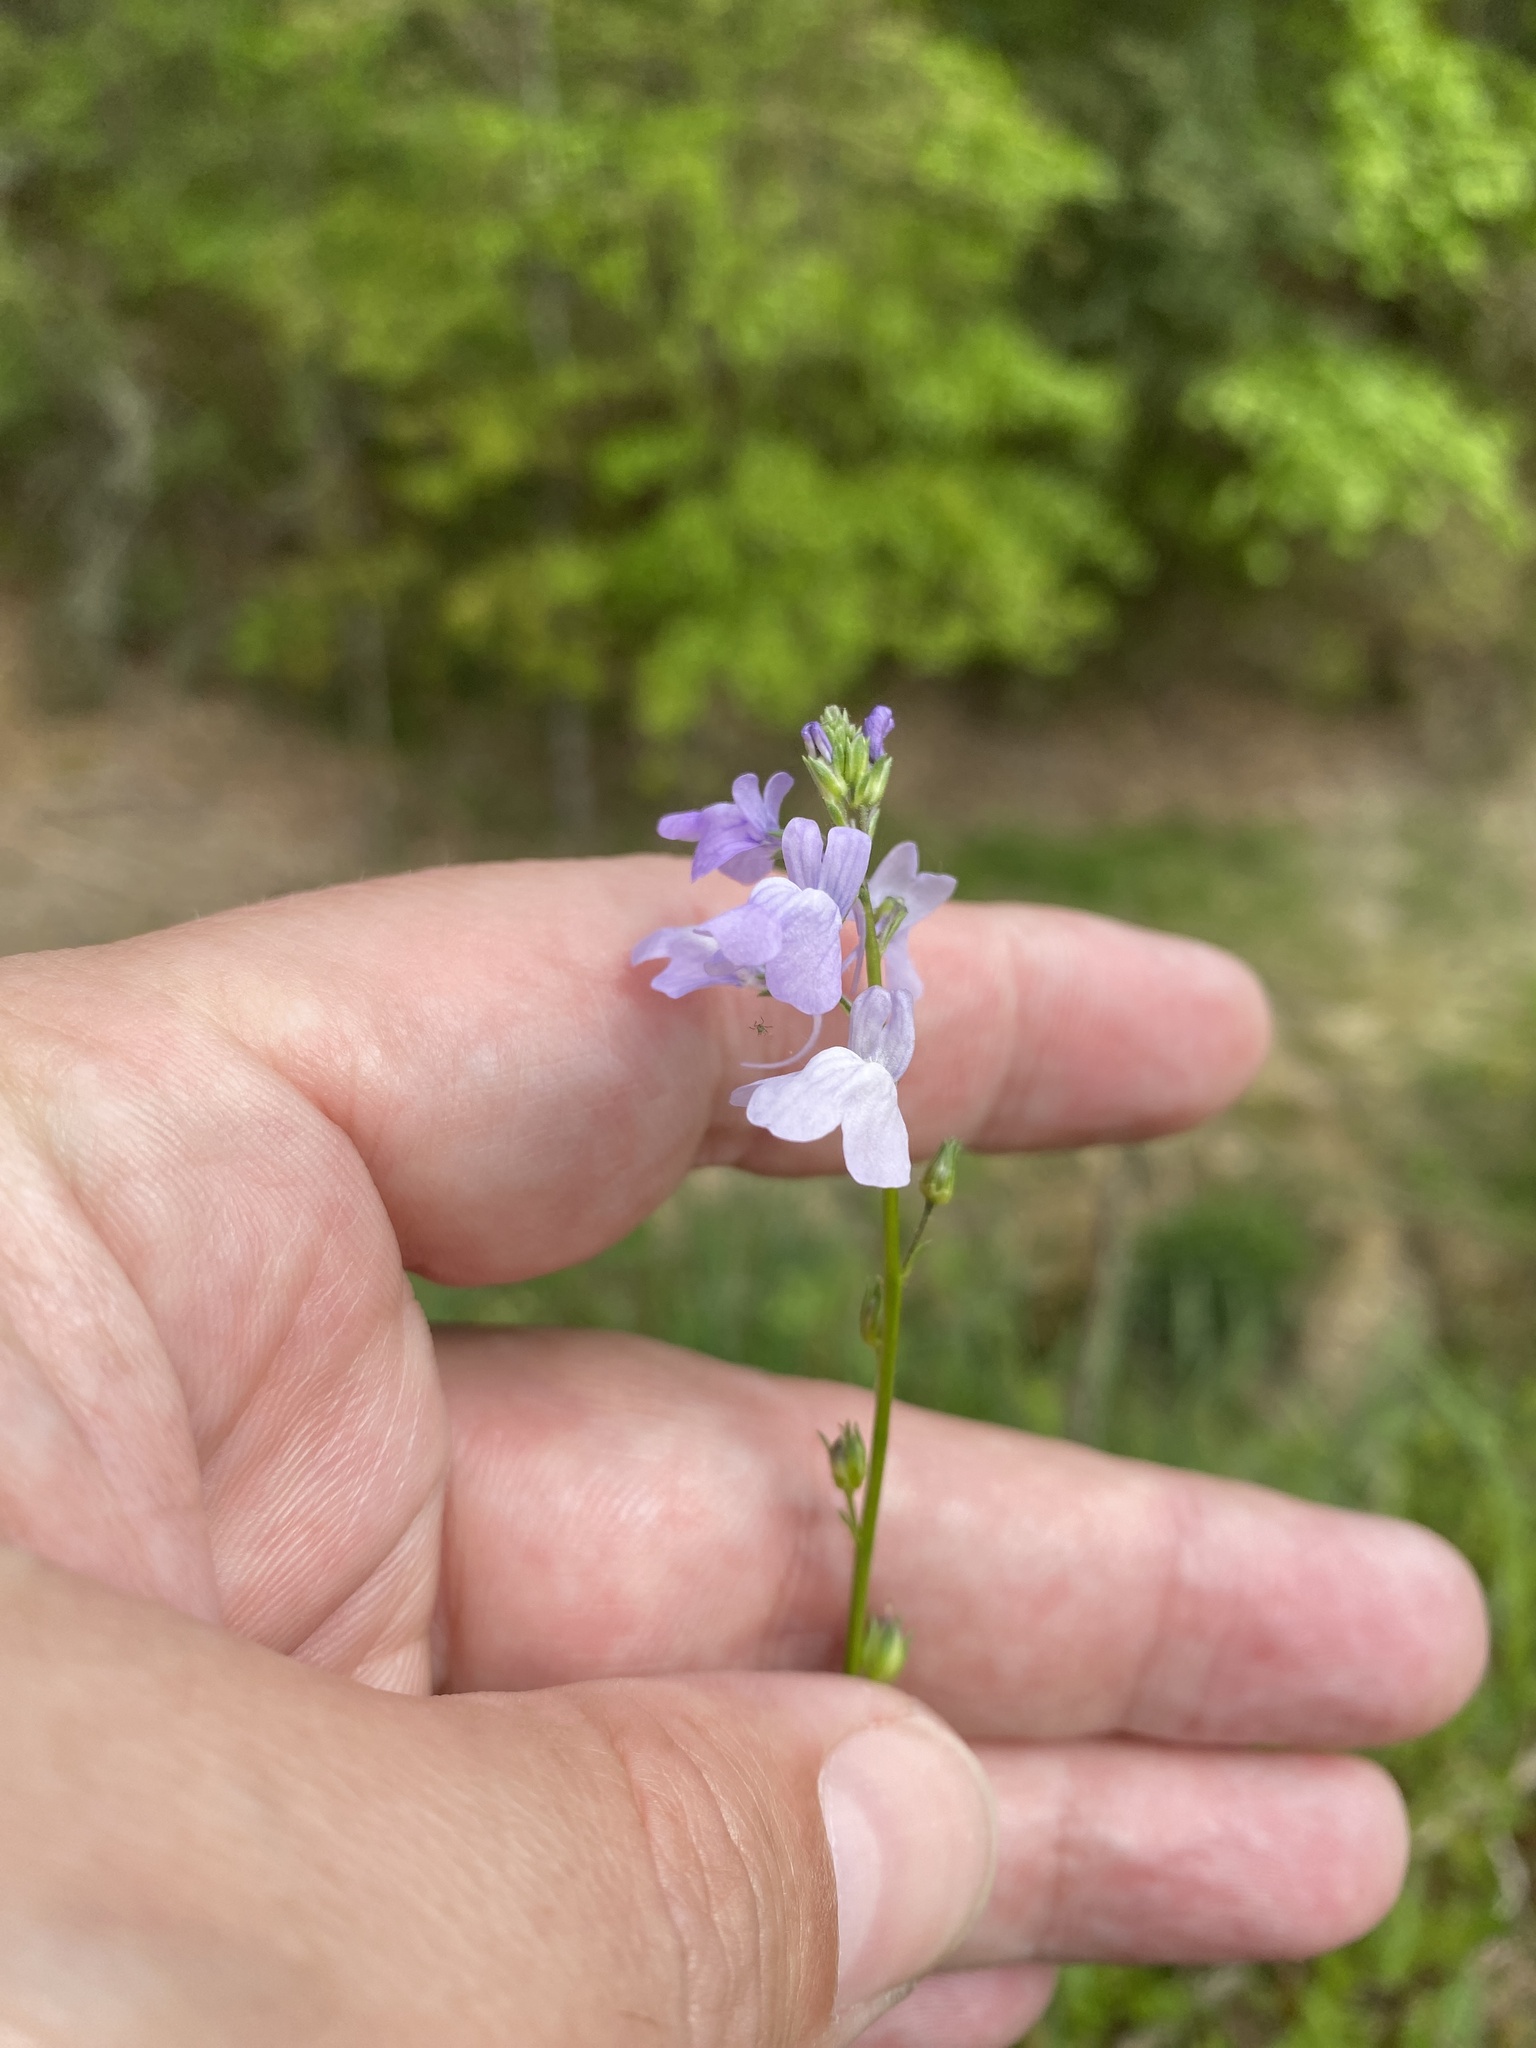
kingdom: Plantae
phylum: Tracheophyta
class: Magnoliopsida
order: Lamiales
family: Plantaginaceae
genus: Nuttallanthus
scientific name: Nuttallanthus texanus
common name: Texas toadflax
